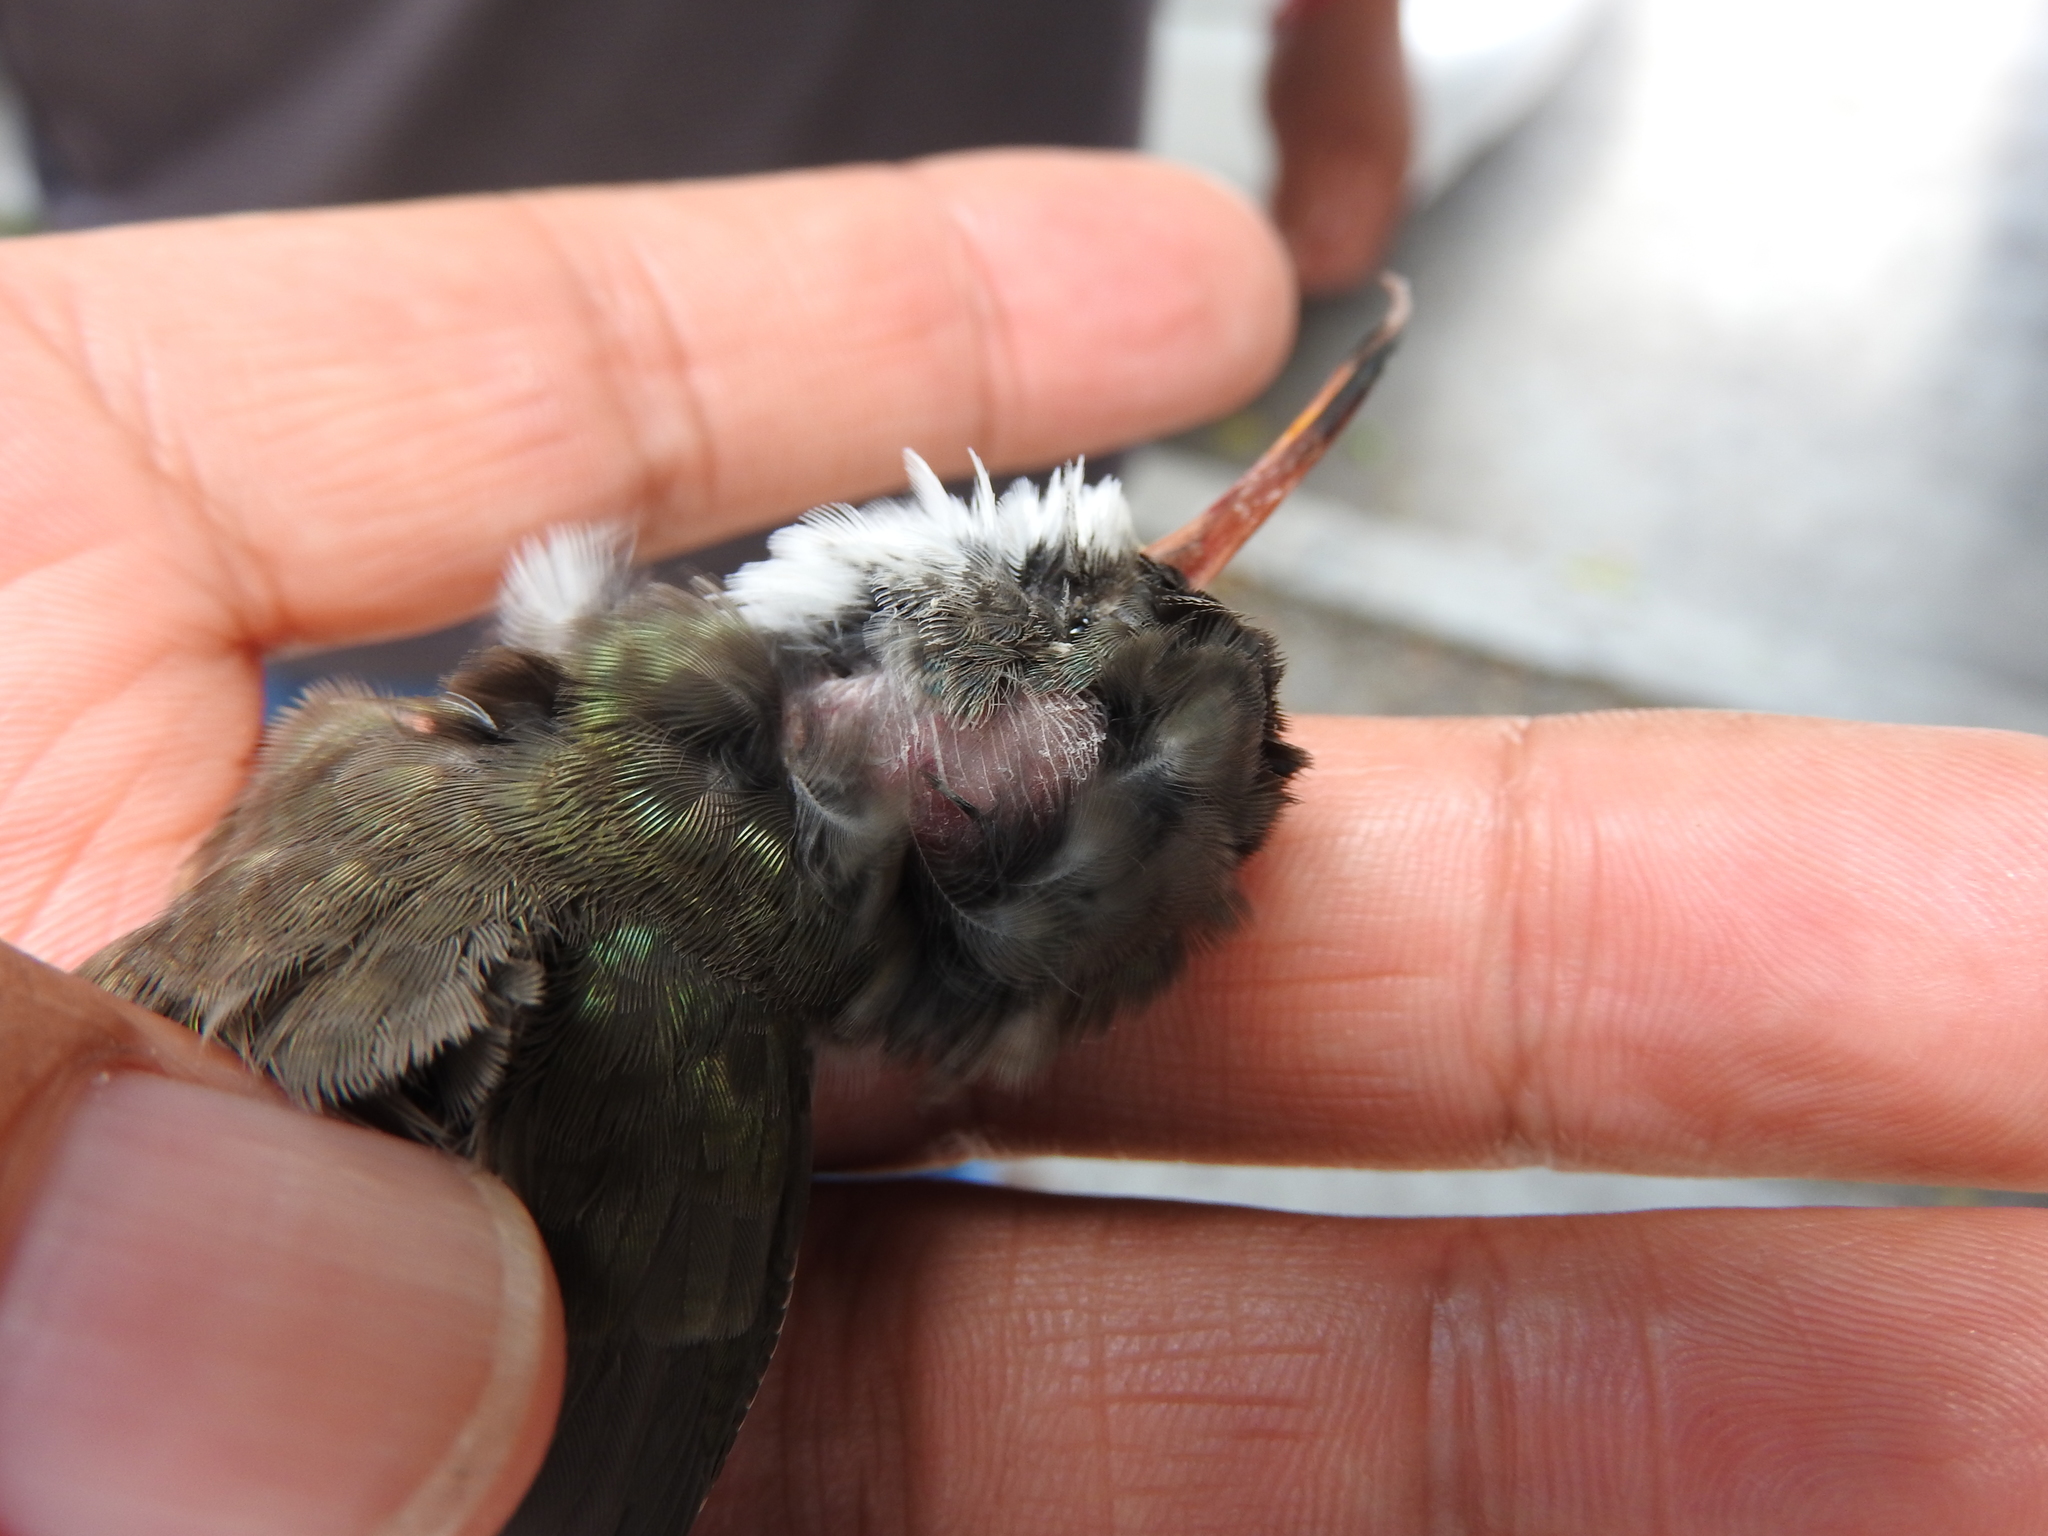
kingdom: Animalia
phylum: Chordata
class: Aves
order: Apodiformes
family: Trochilidae
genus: Leucolia
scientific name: Leucolia violiceps
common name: Violet-crowned hummingbird
